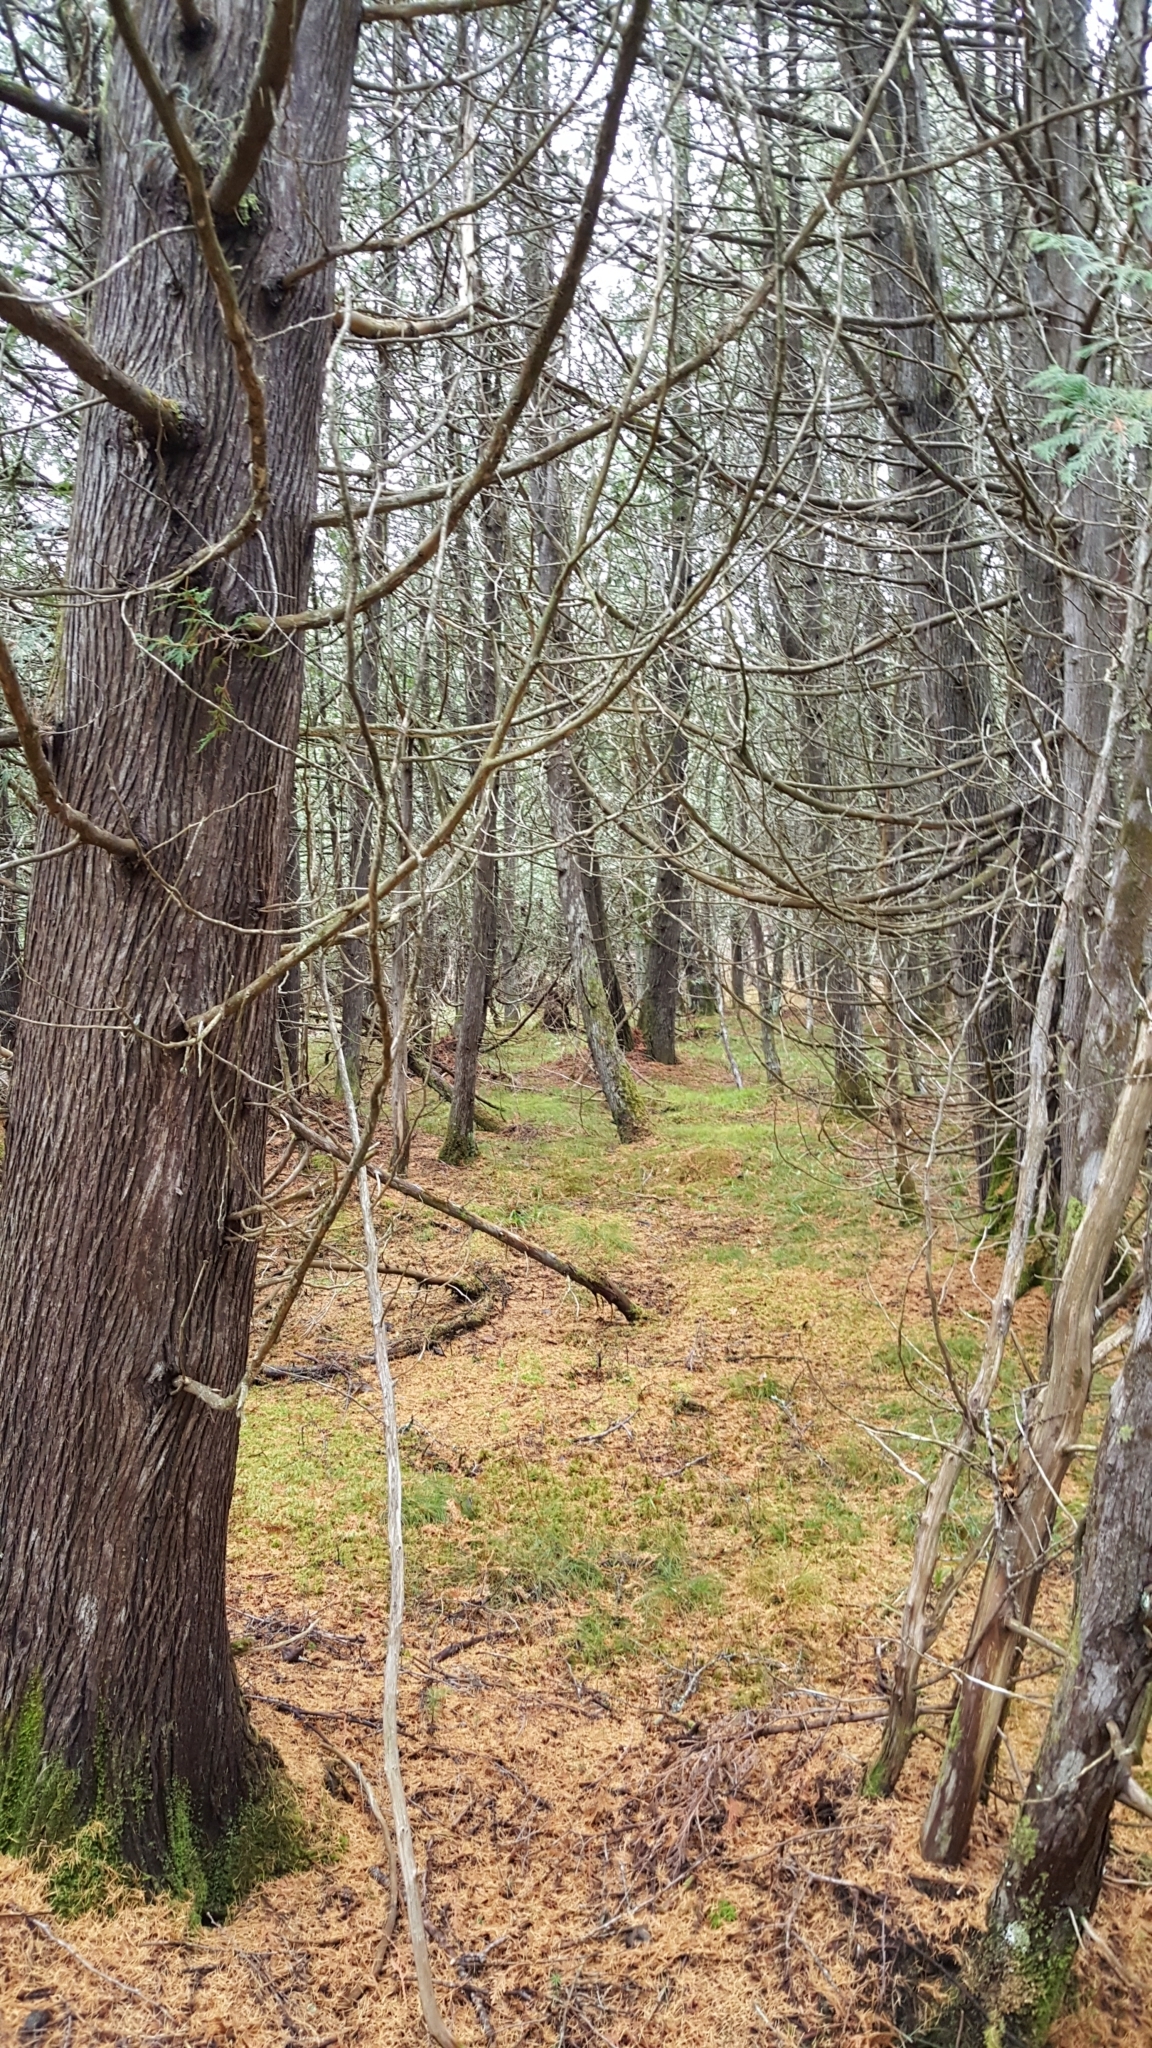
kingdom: Plantae
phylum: Tracheophyta
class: Pinopsida
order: Pinales
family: Cupressaceae
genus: Thuja
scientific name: Thuja occidentalis
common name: Northern white-cedar
